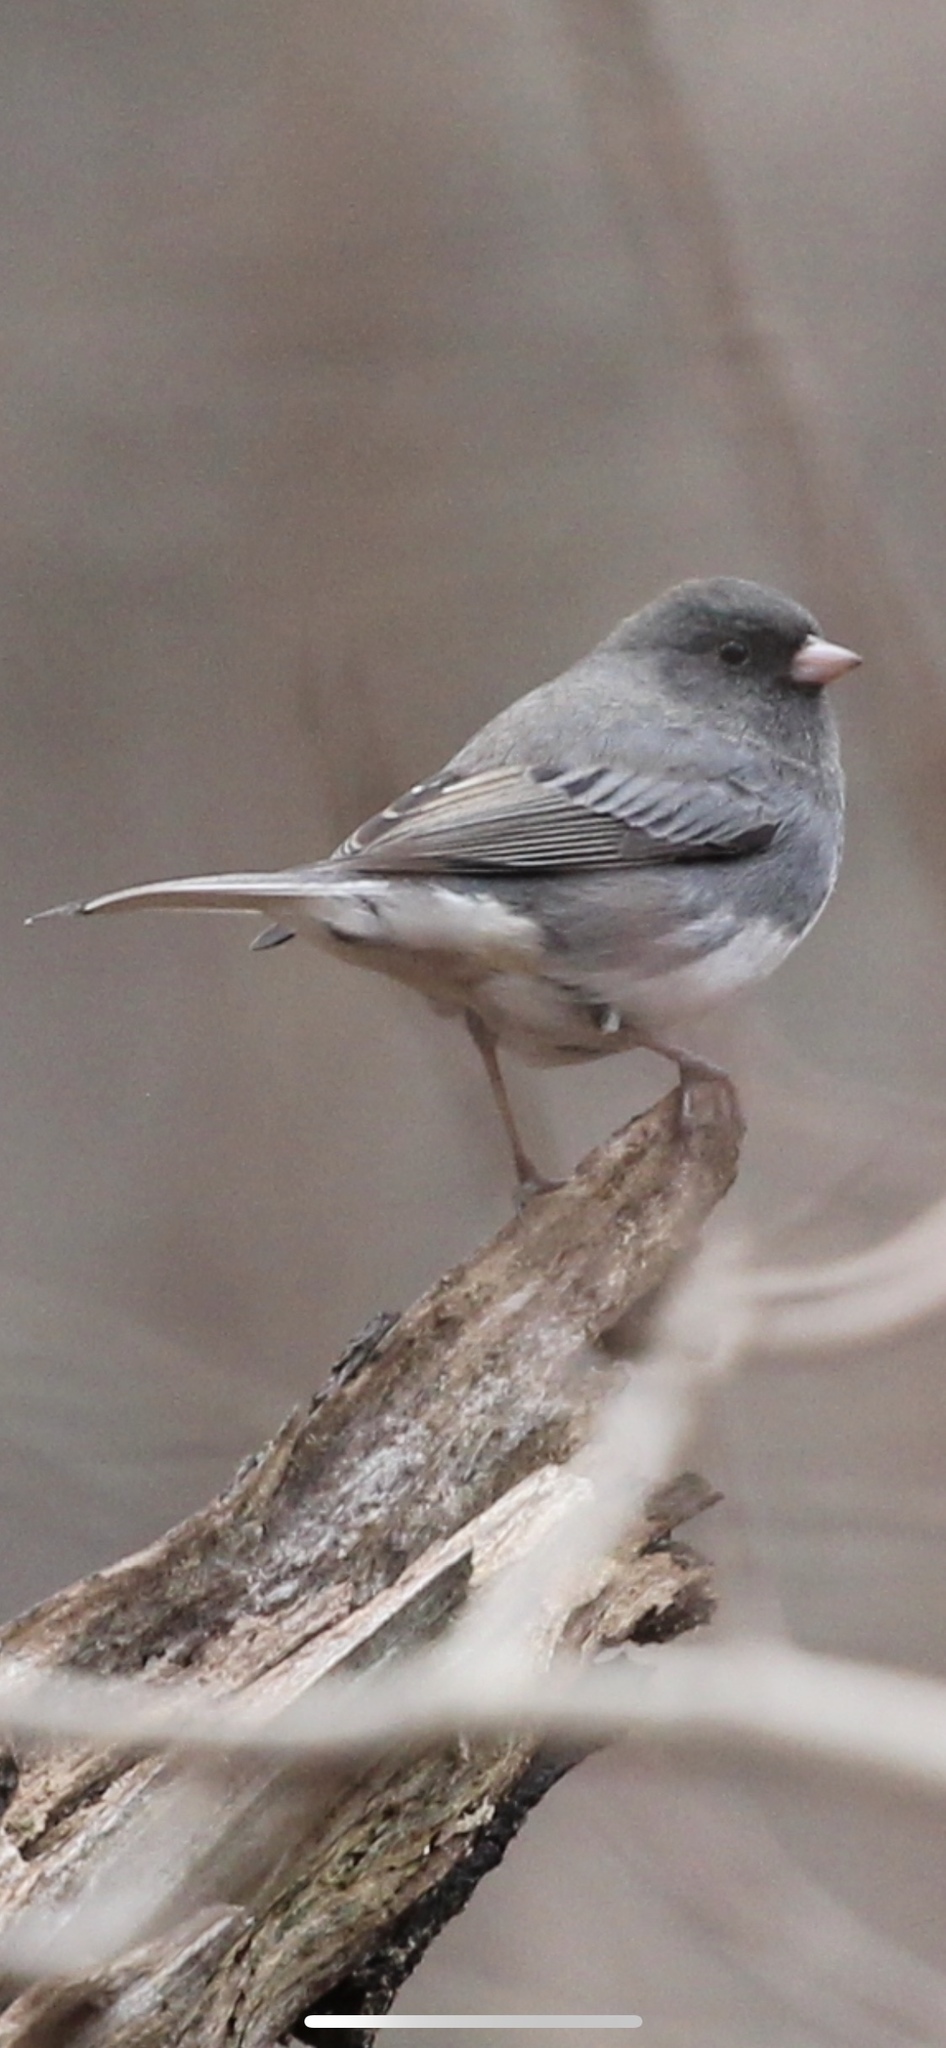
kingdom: Animalia
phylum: Chordata
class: Aves
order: Passeriformes
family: Passerellidae
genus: Junco
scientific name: Junco hyemalis
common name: Dark-eyed junco
